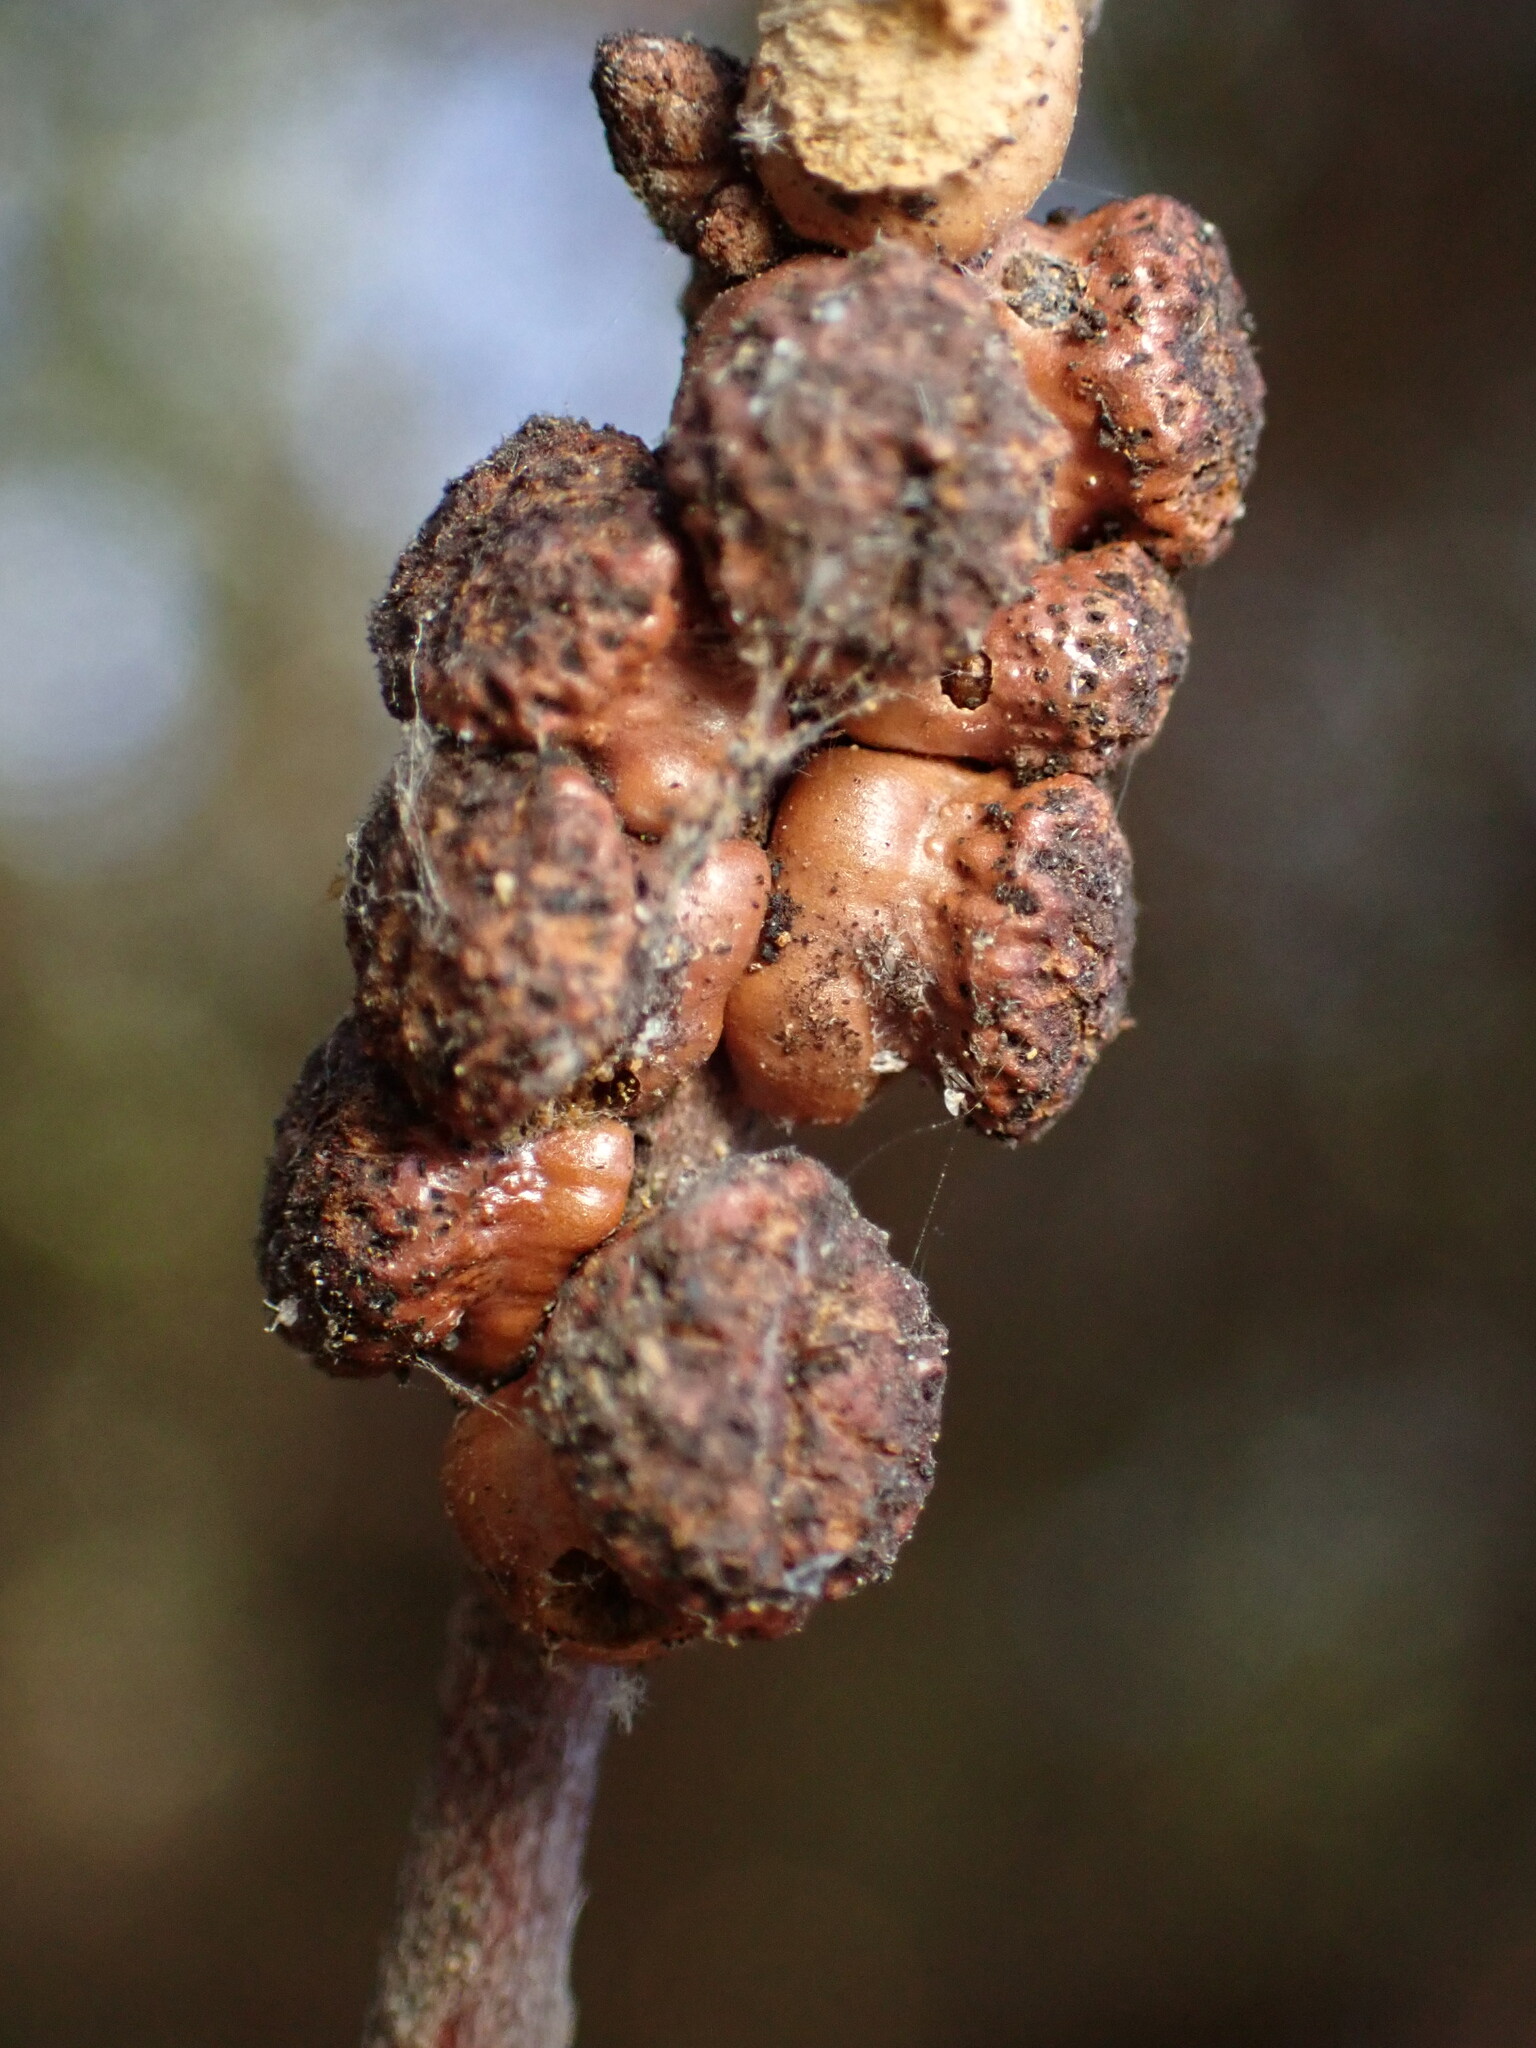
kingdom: Animalia
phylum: Arthropoda
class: Insecta
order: Hymenoptera
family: Cynipidae
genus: Disholcaspis
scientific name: Disholcaspis prehensa
